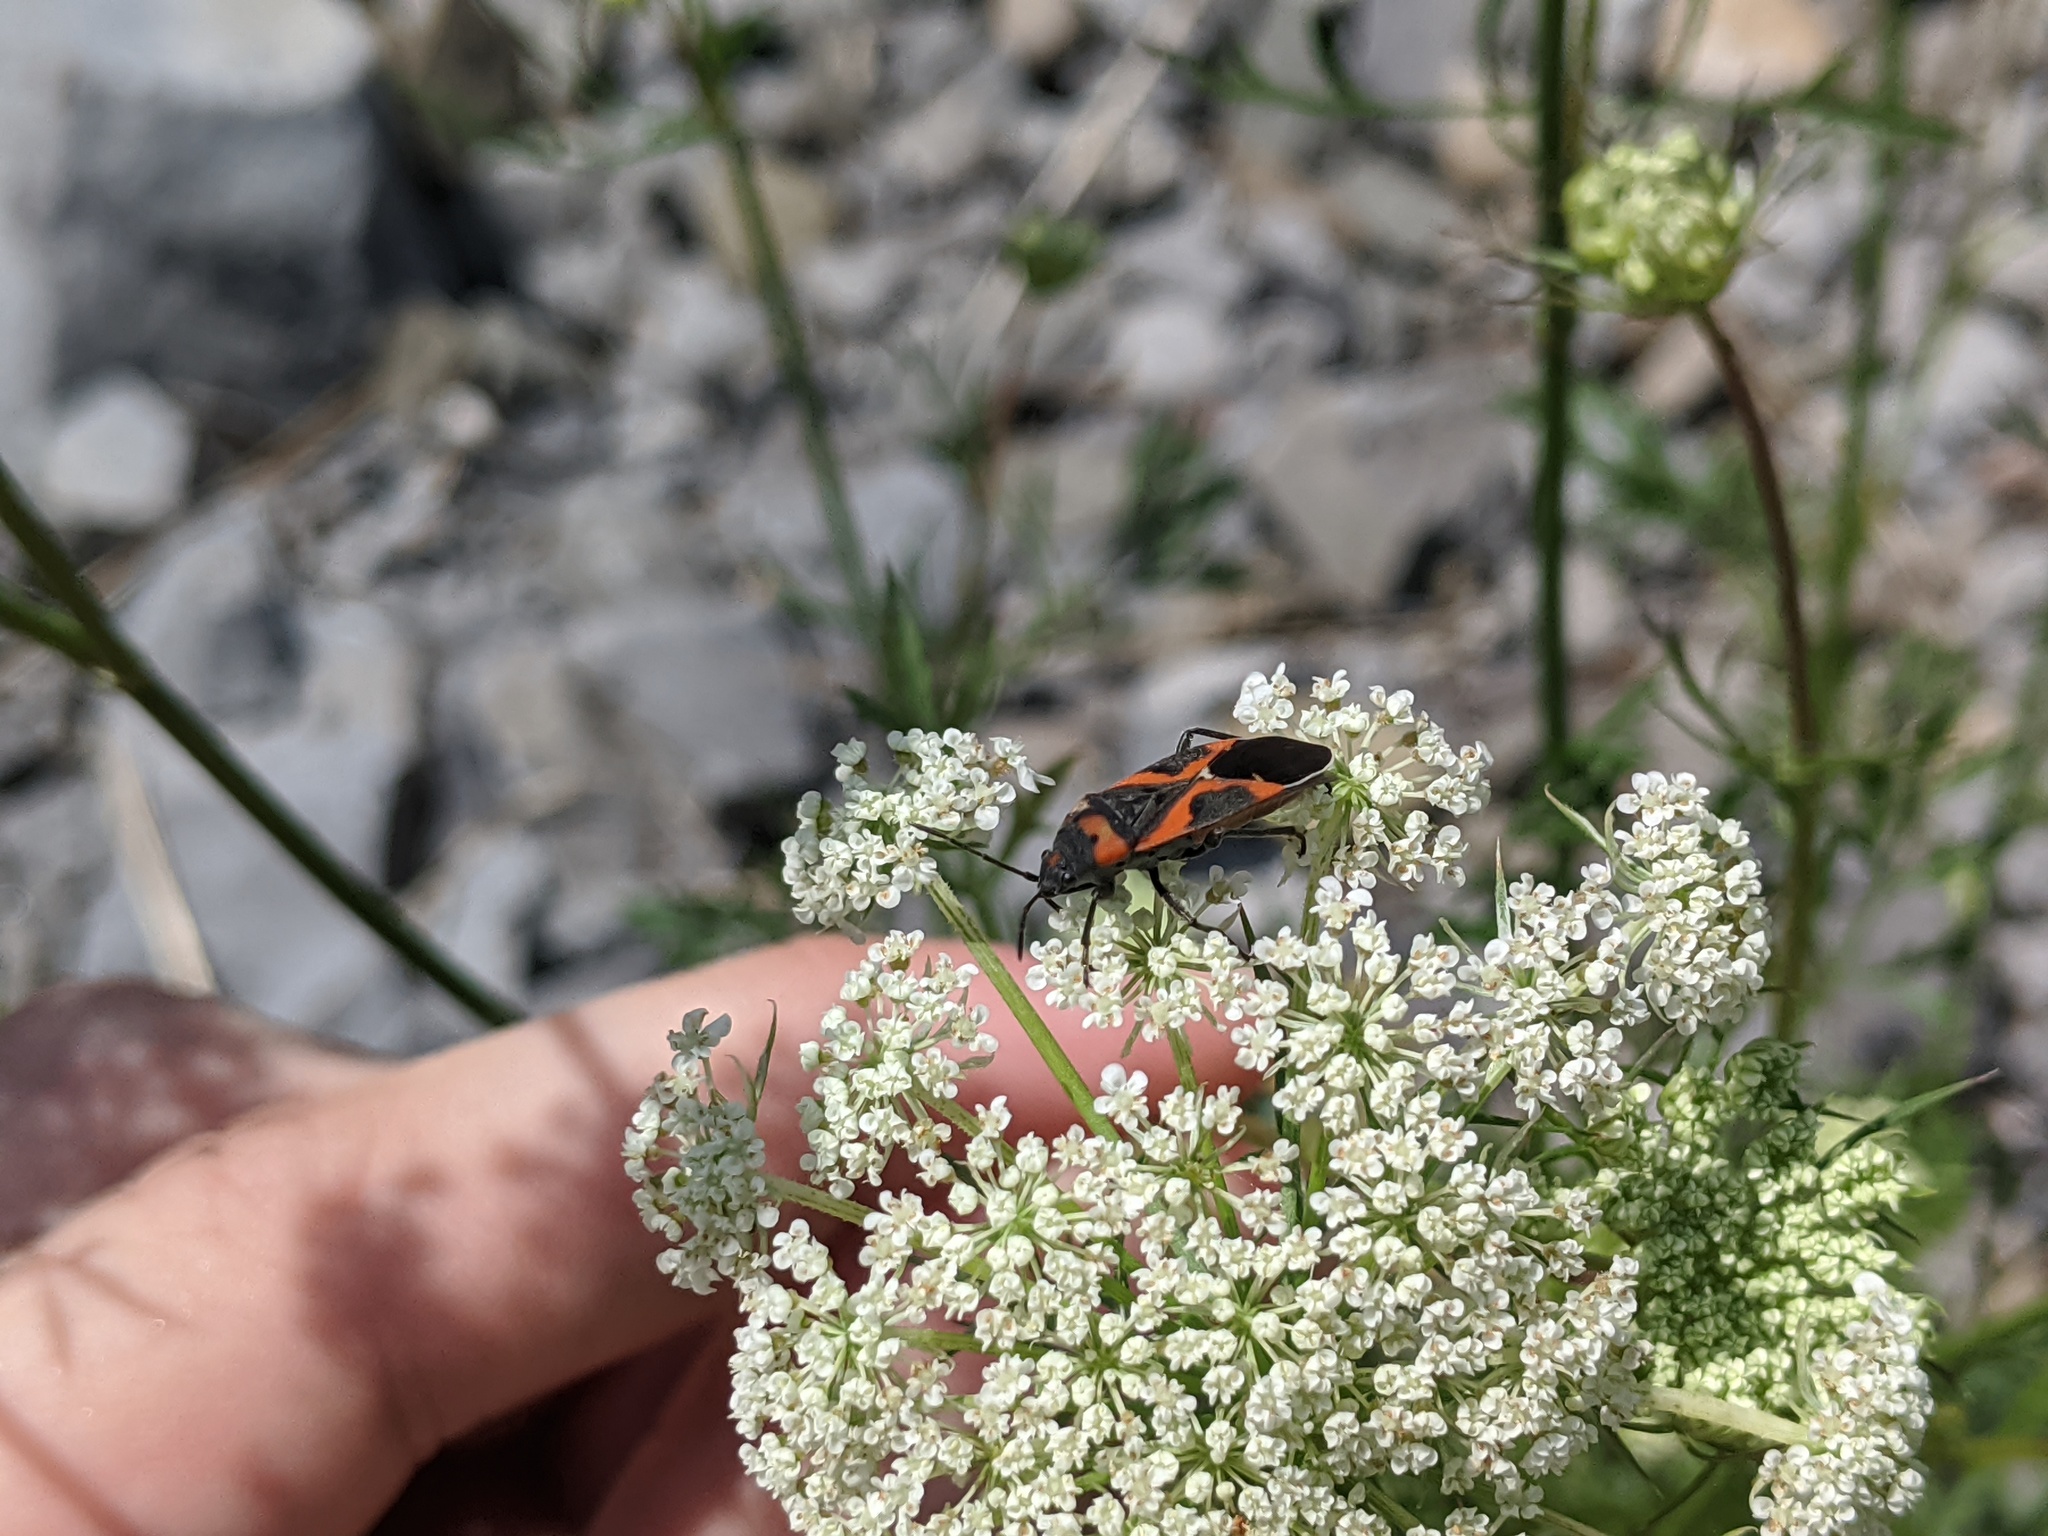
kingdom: Animalia
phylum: Arthropoda
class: Insecta
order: Hemiptera
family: Lygaeidae
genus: Lygaeus
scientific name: Lygaeus kalmii
